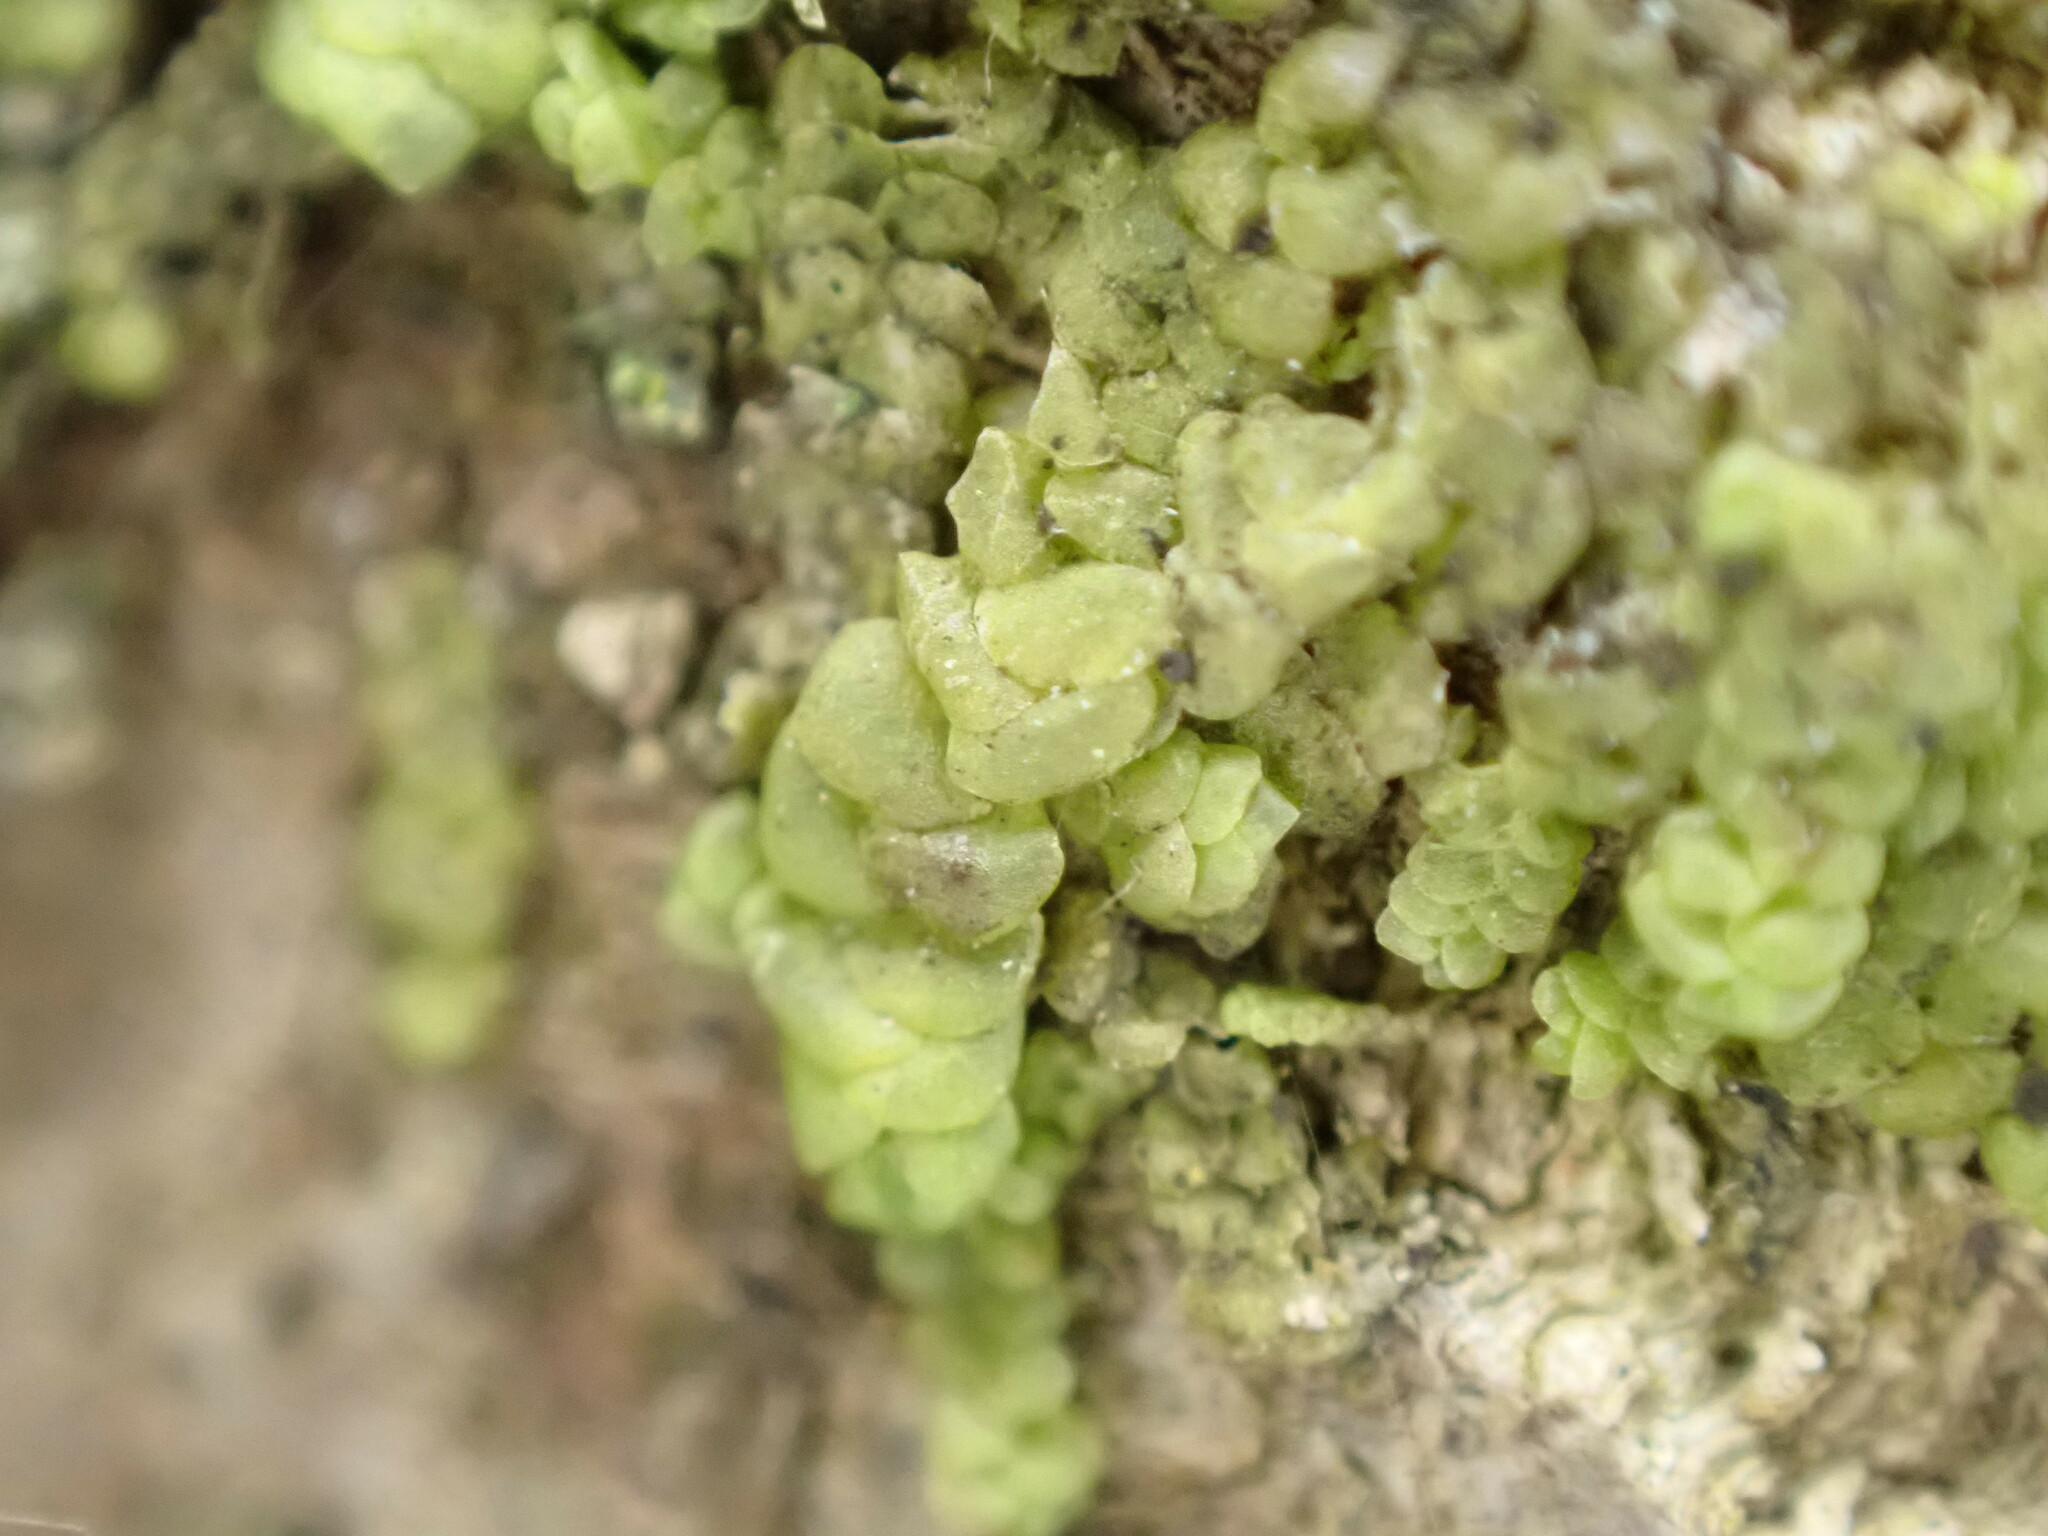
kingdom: Plantae
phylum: Marchantiophyta
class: Jungermanniopsida
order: Porellales
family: Radulaceae
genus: Radula
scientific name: Radula complanata
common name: Flat-leaved scalewort
